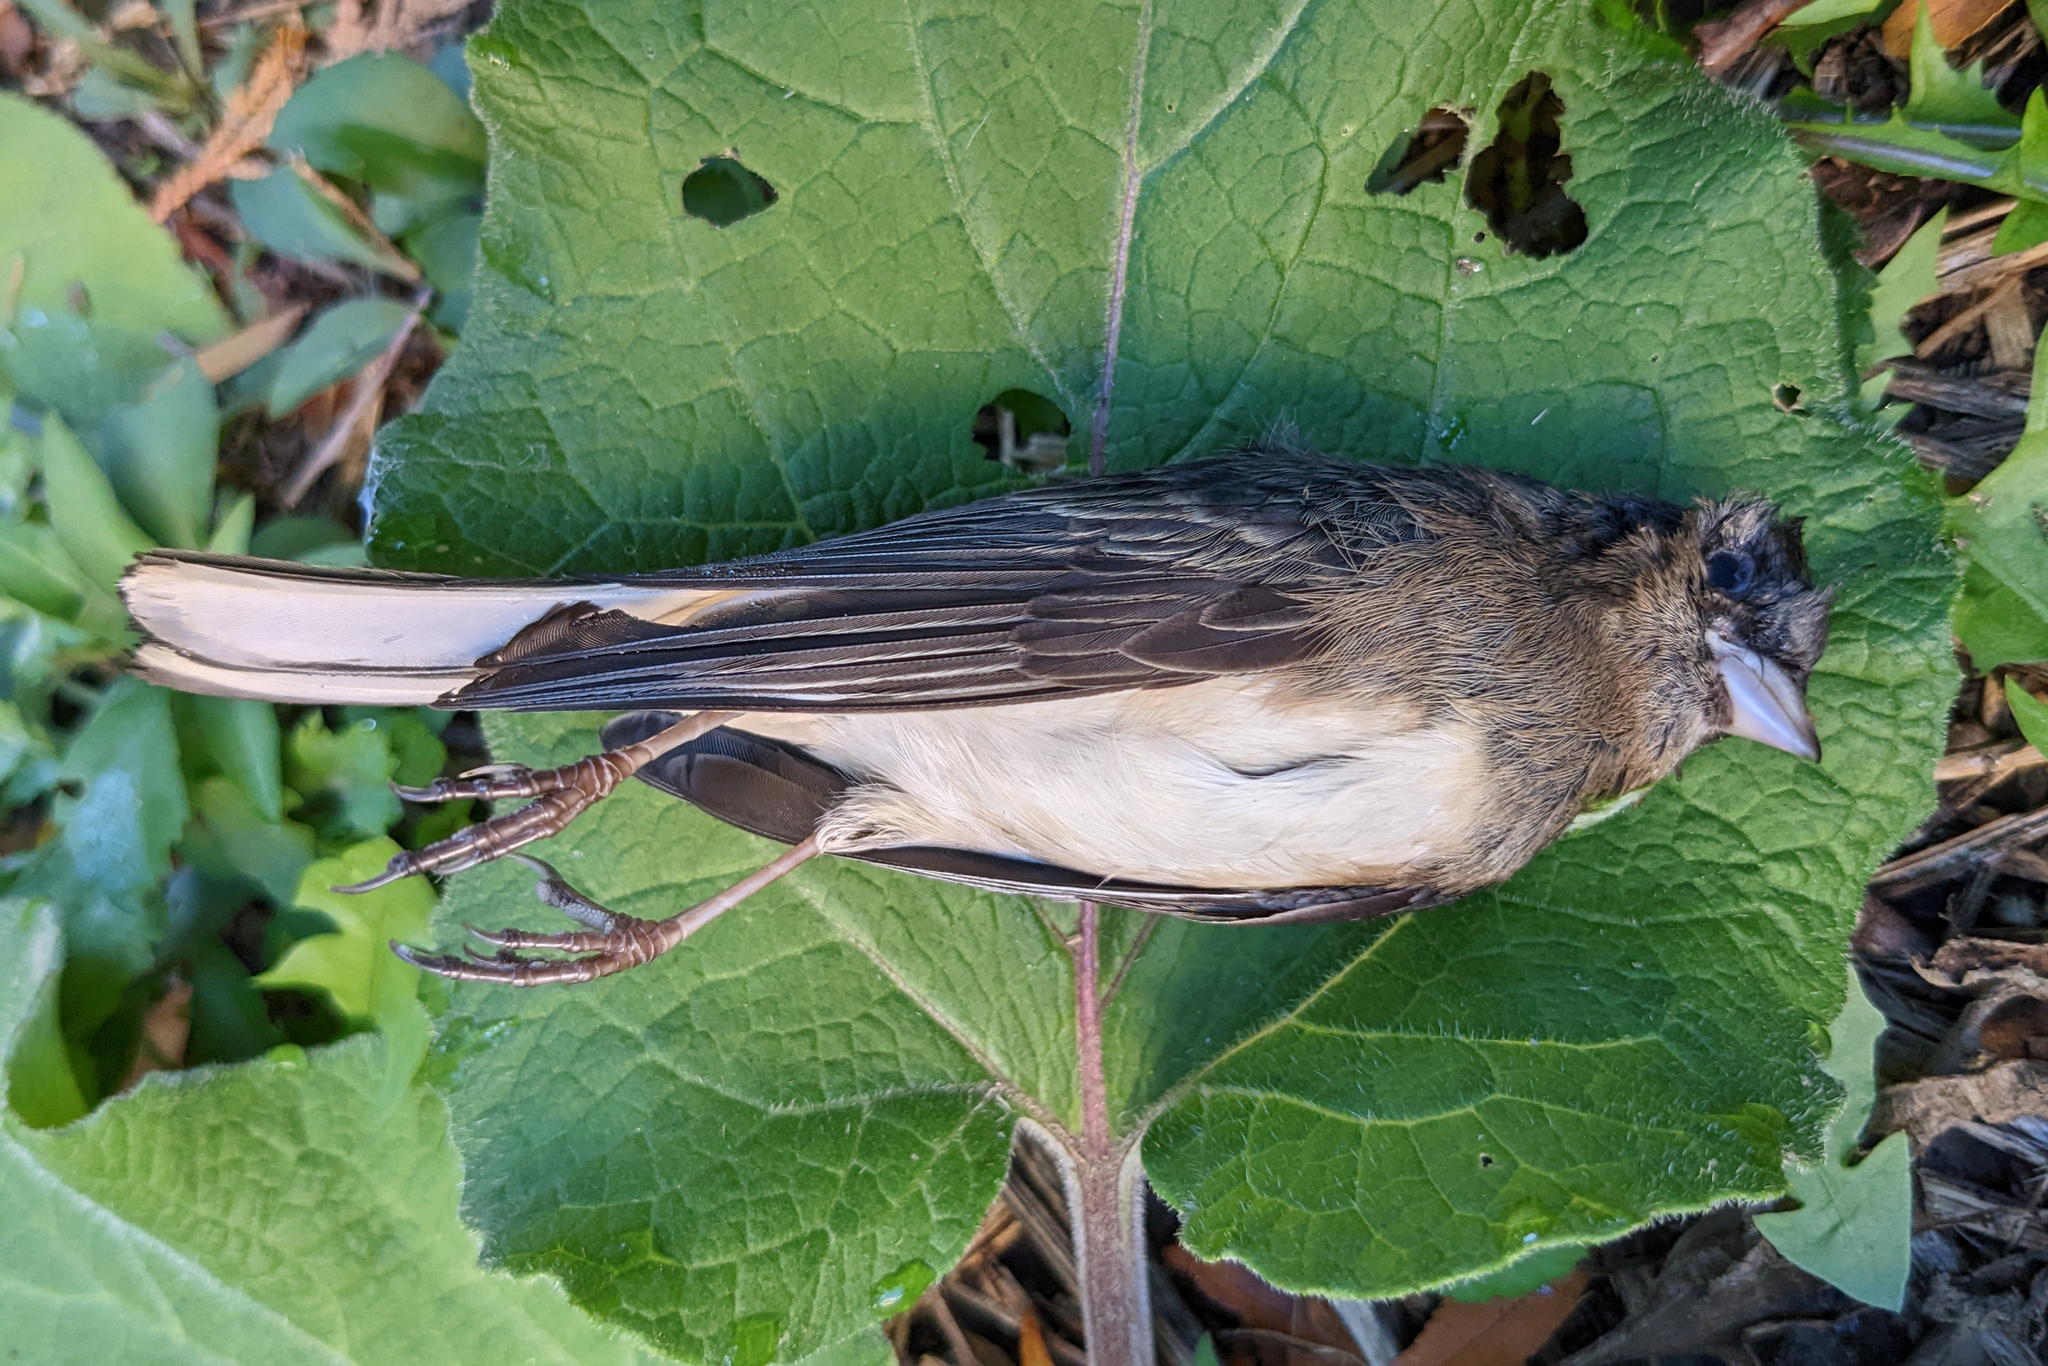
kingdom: Animalia
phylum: Chordata
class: Aves
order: Passeriformes
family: Passerellidae
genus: Junco
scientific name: Junco hyemalis
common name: Dark-eyed junco
